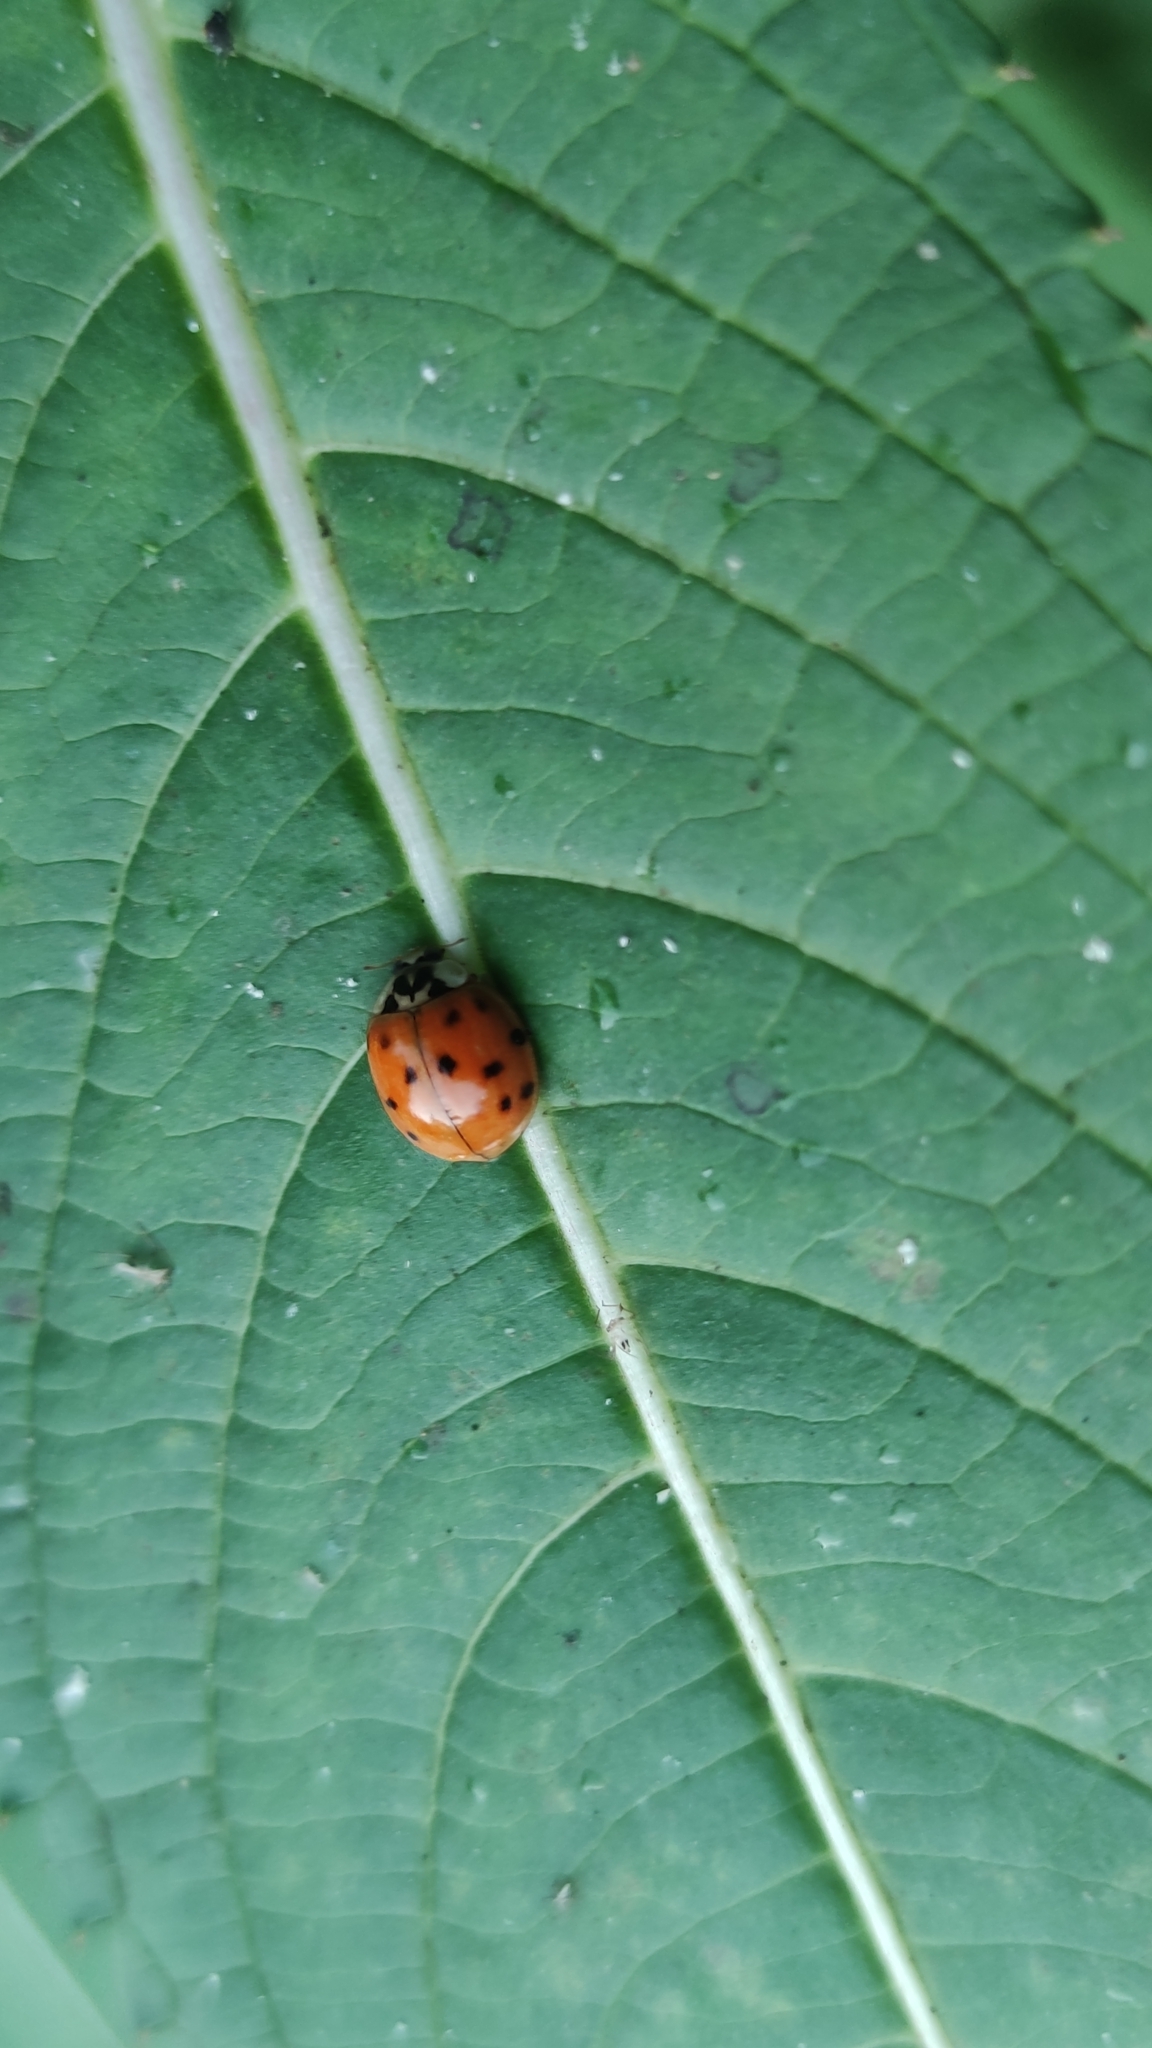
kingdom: Animalia
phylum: Arthropoda
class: Insecta
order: Coleoptera
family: Coccinellidae
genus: Harmonia
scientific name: Harmonia axyridis
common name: Harlequin ladybird
